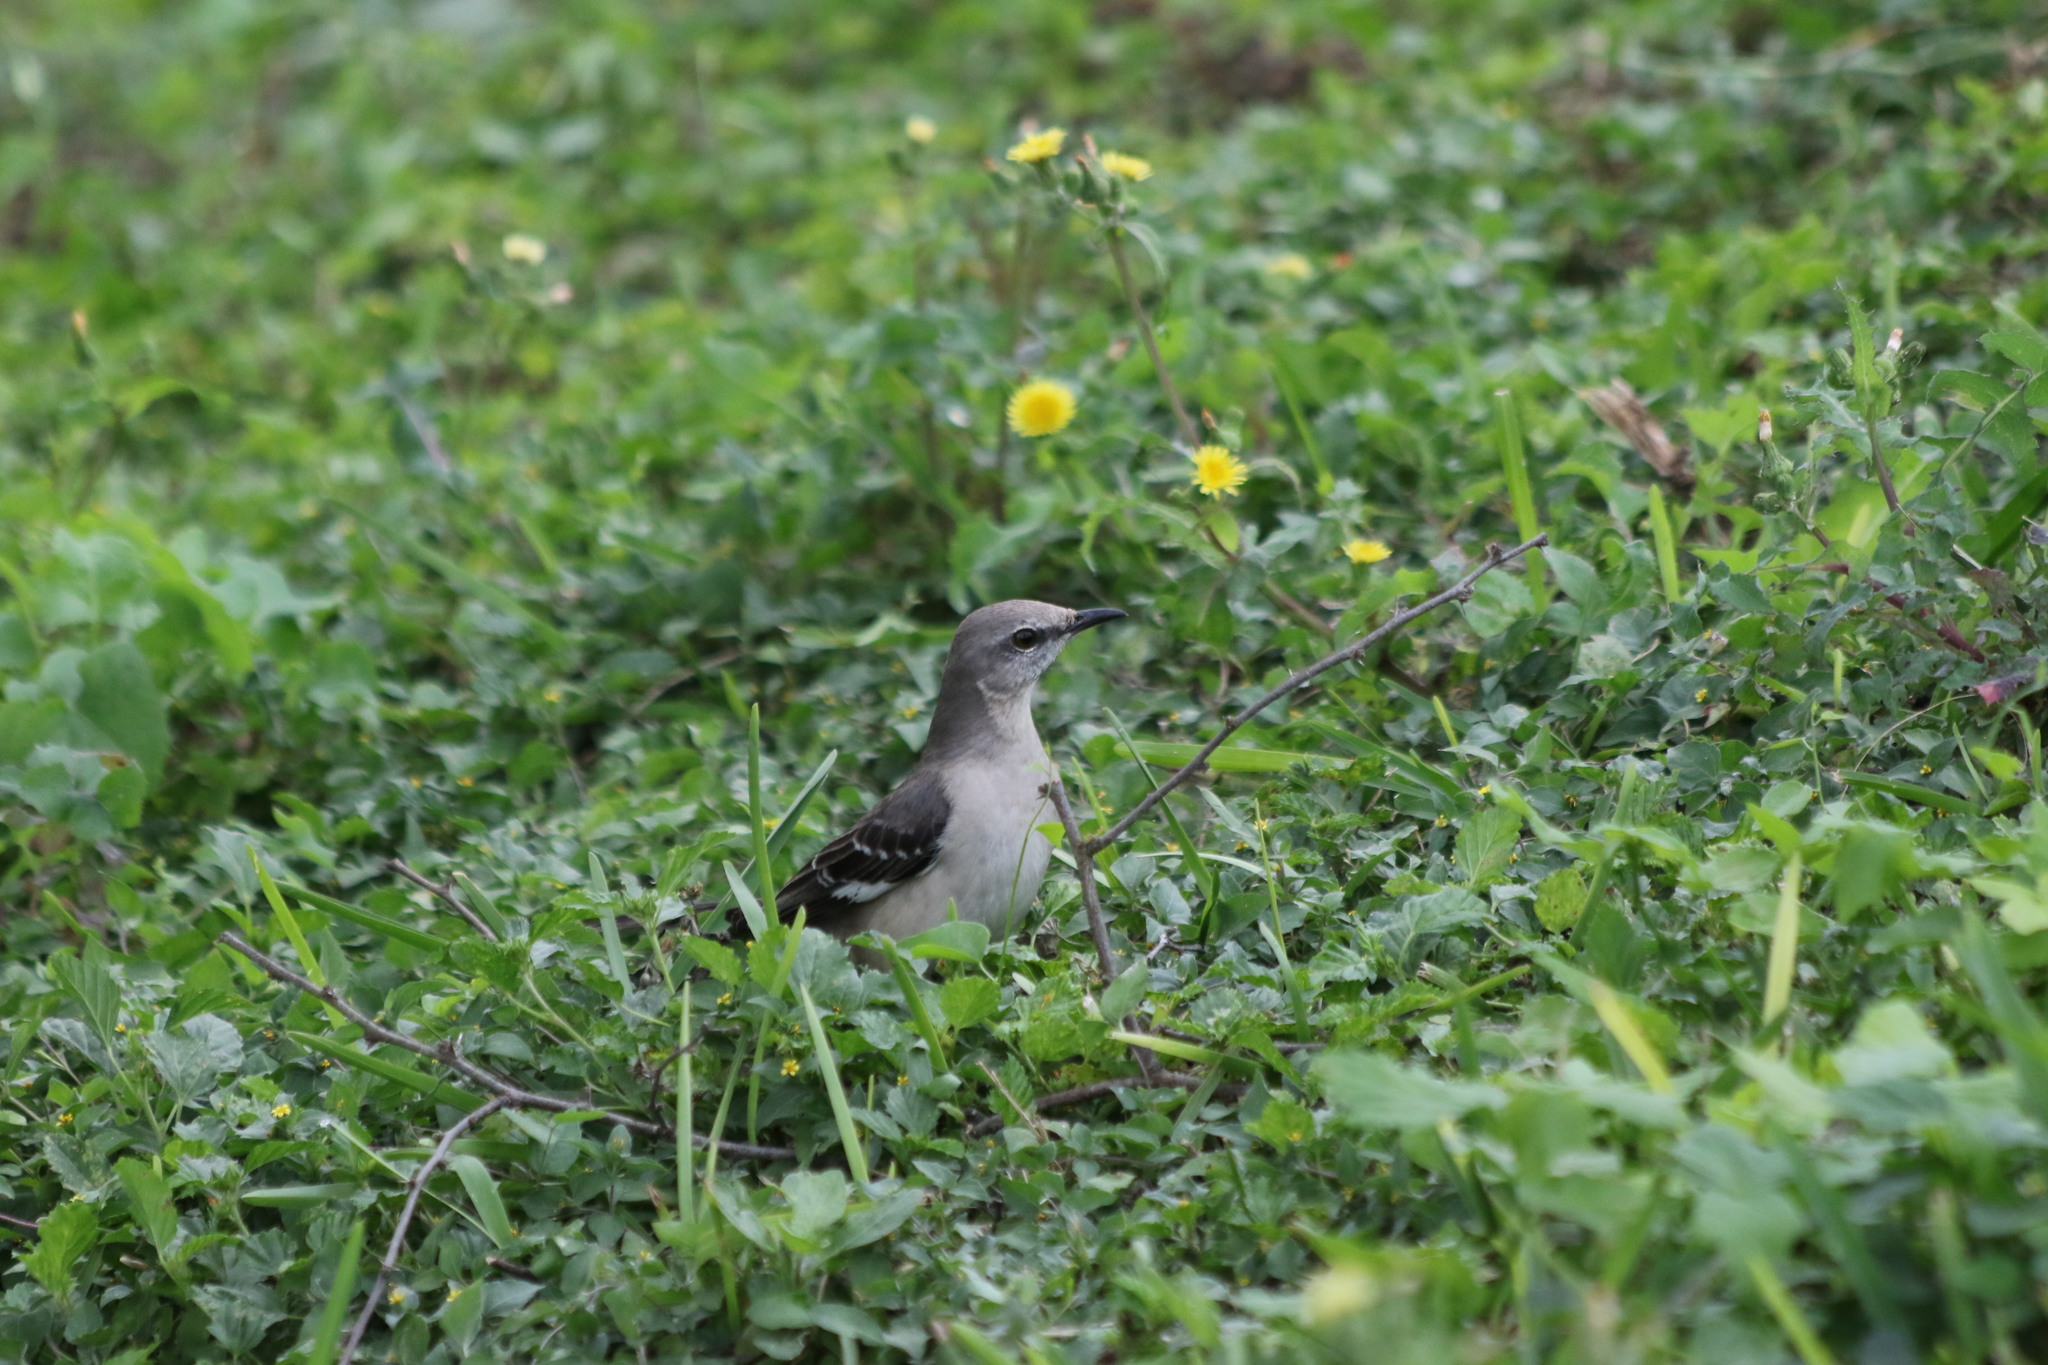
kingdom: Animalia
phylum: Chordata
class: Aves
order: Passeriformes
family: Mimidae
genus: Mimus
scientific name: Mimus polyglottos
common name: Northern mockingbird
